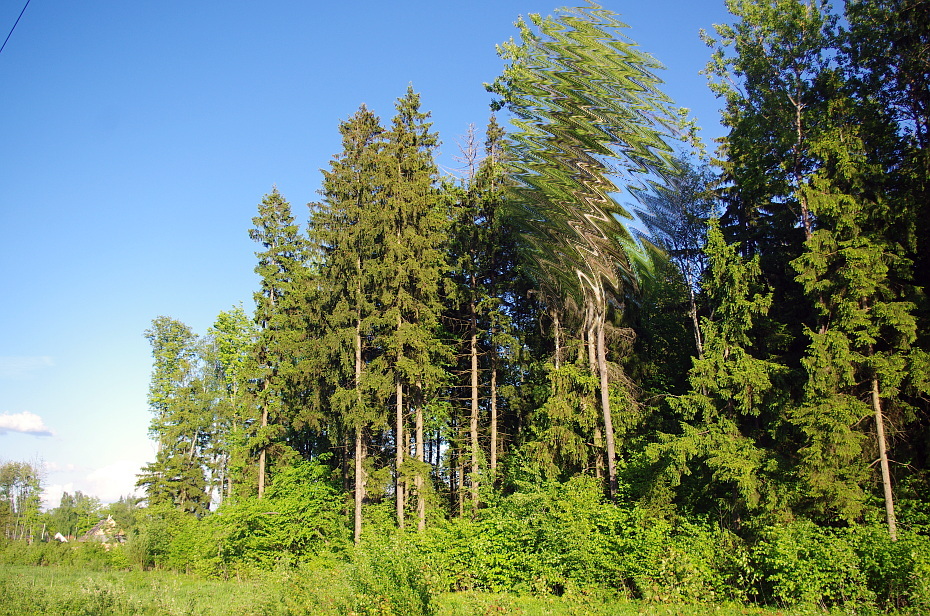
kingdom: Plantae
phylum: Tracheophyta
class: Pinopsida
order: Pinales
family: Pinaceae
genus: Picea
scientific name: Picea abies
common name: Norway spruce
